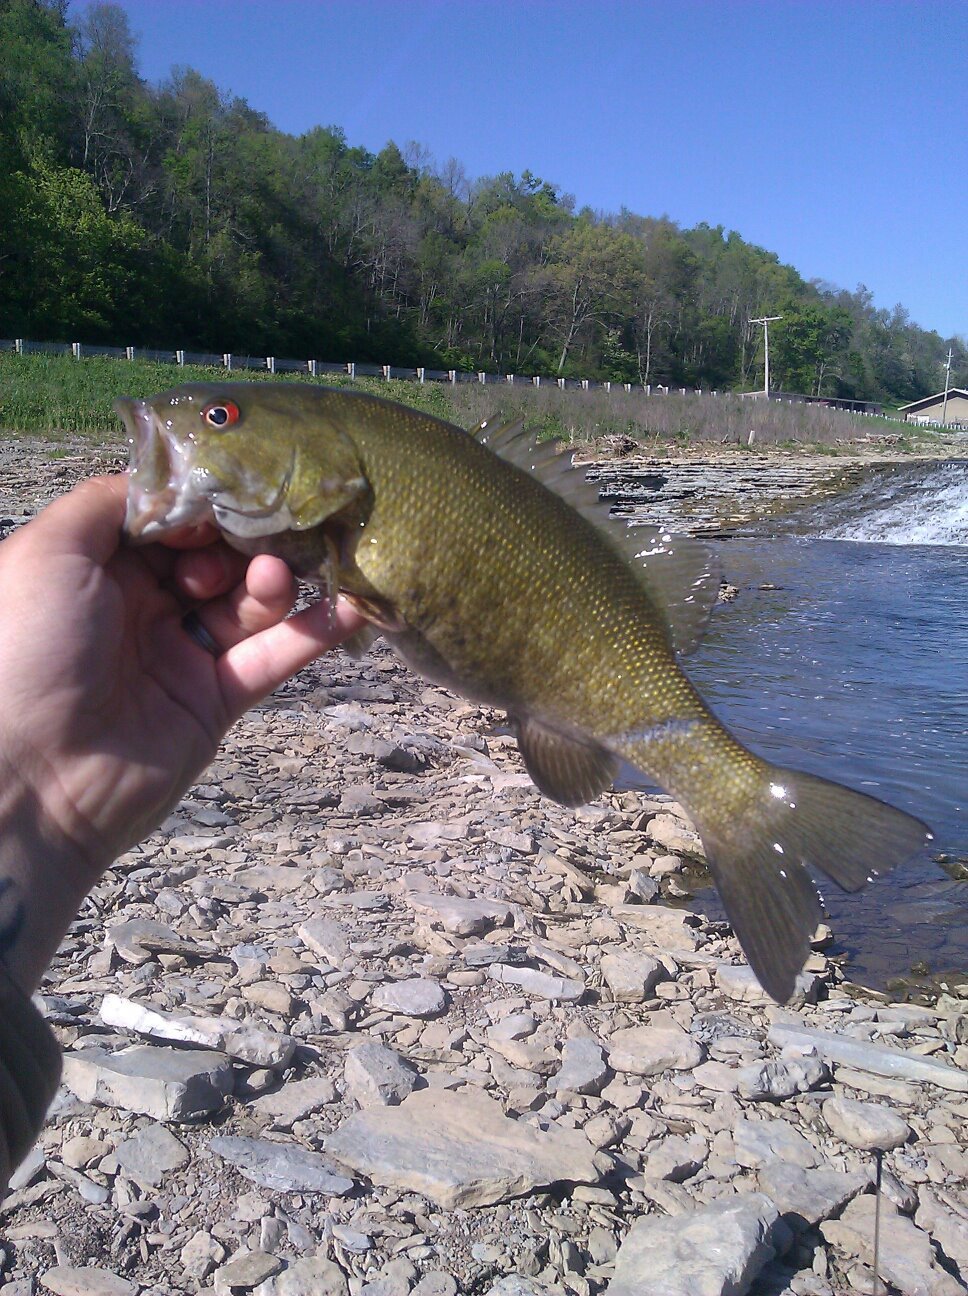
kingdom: Animalia
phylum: Chordata
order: Perciformes
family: Centrarchidae
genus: Micropterus
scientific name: Micropterus dolomieu
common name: Smallmouth bass
